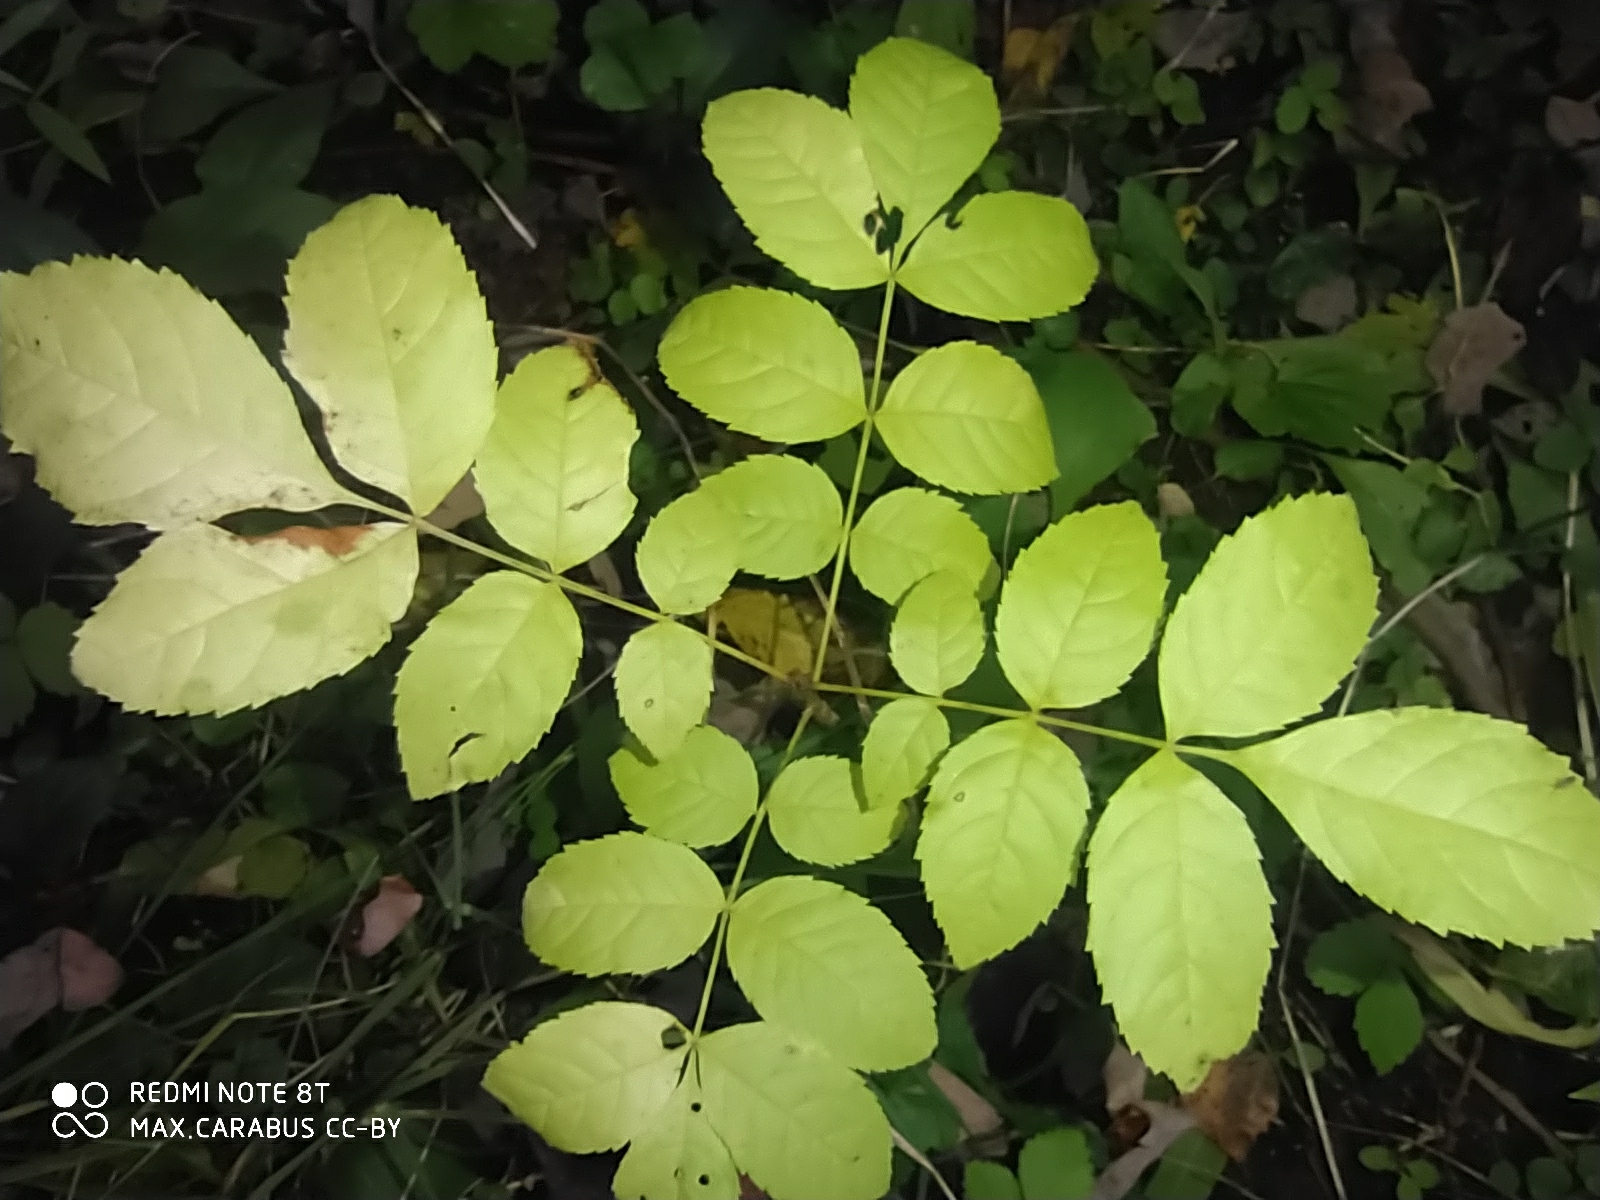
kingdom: Plantae
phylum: Tracheophyta
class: Magnoliopsida
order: Lamiales
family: Oleaceae
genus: Fraxinus
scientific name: Fraxinus excelsior
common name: European ash
